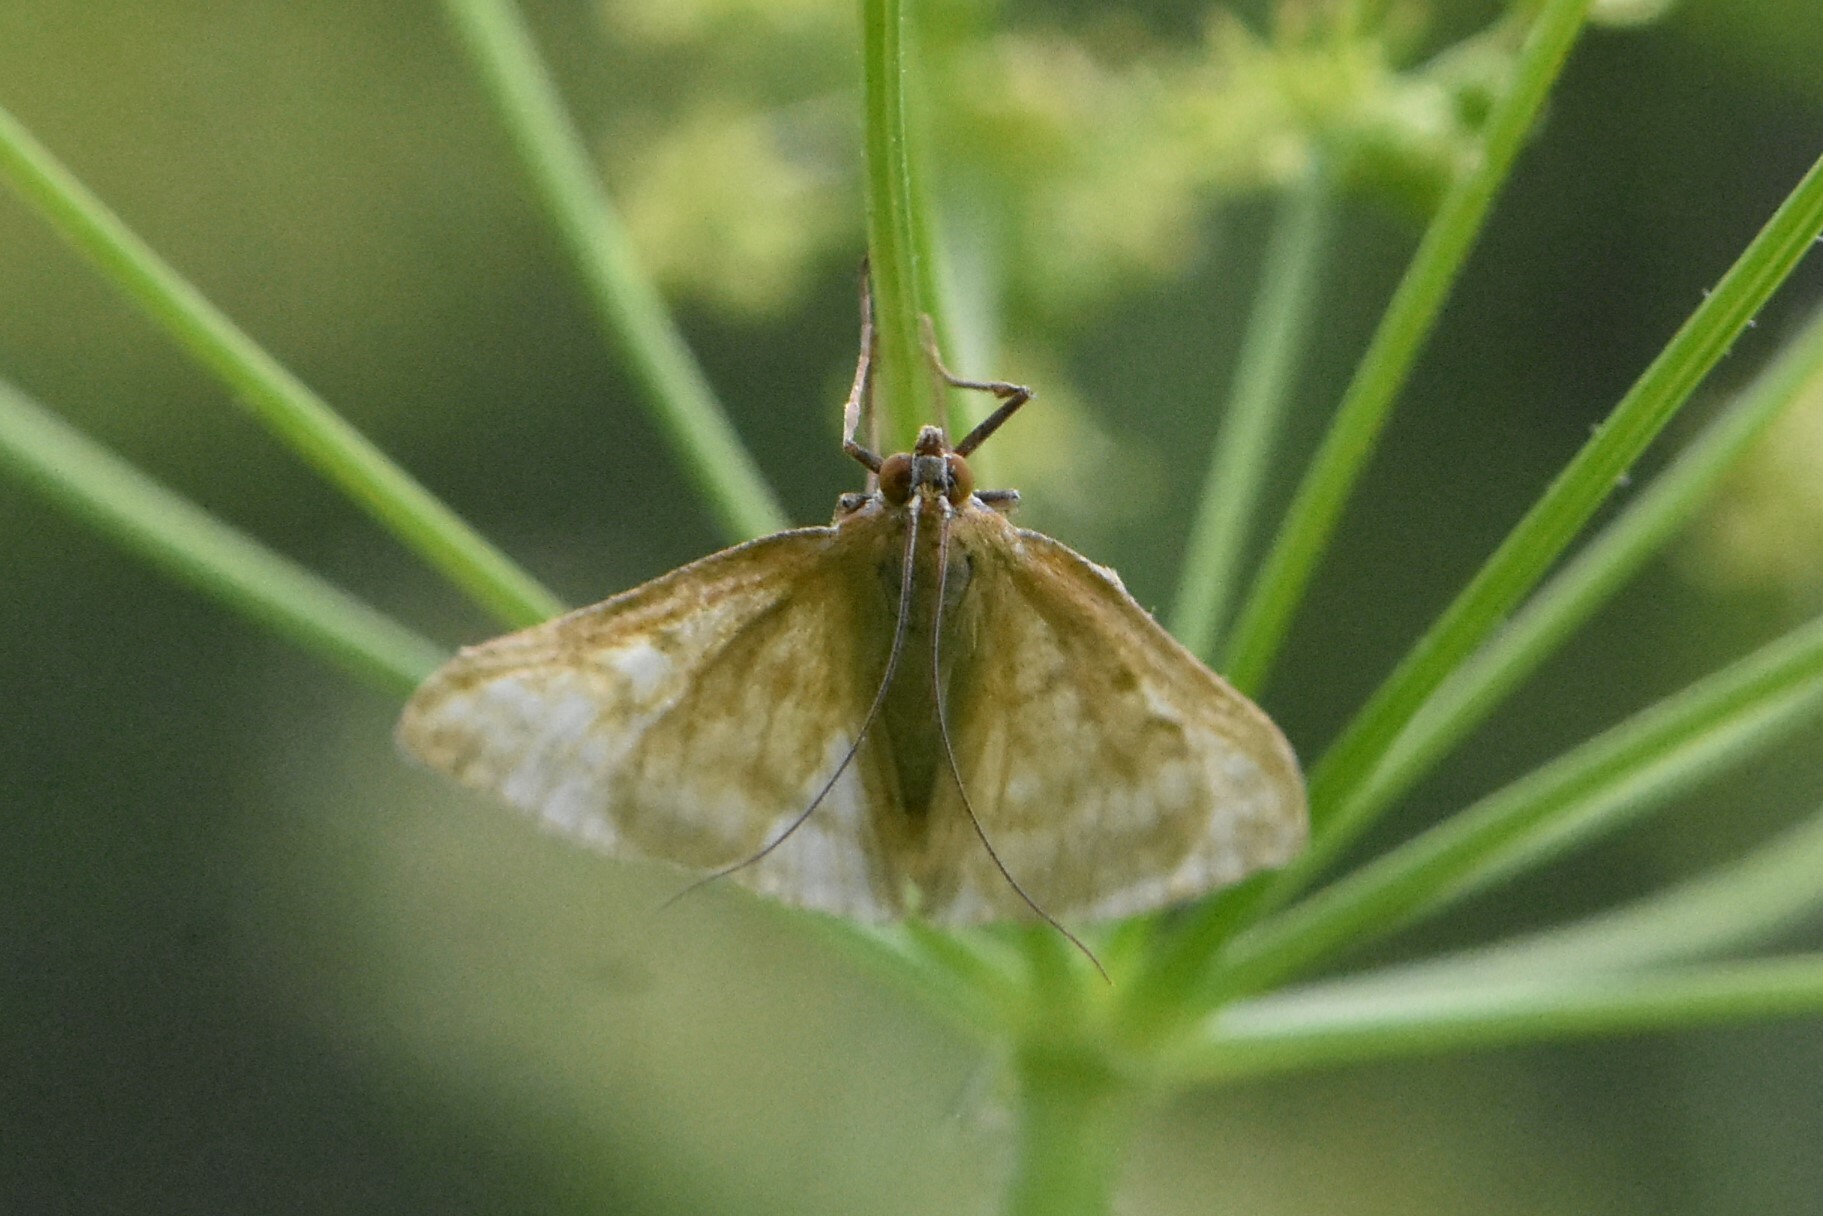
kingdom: Animalia
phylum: Arthropoda
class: Insecta
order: Lepidoptera
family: Crambidae
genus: Sitochroa
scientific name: Sitochroa verticalis
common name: Lesser pearl
